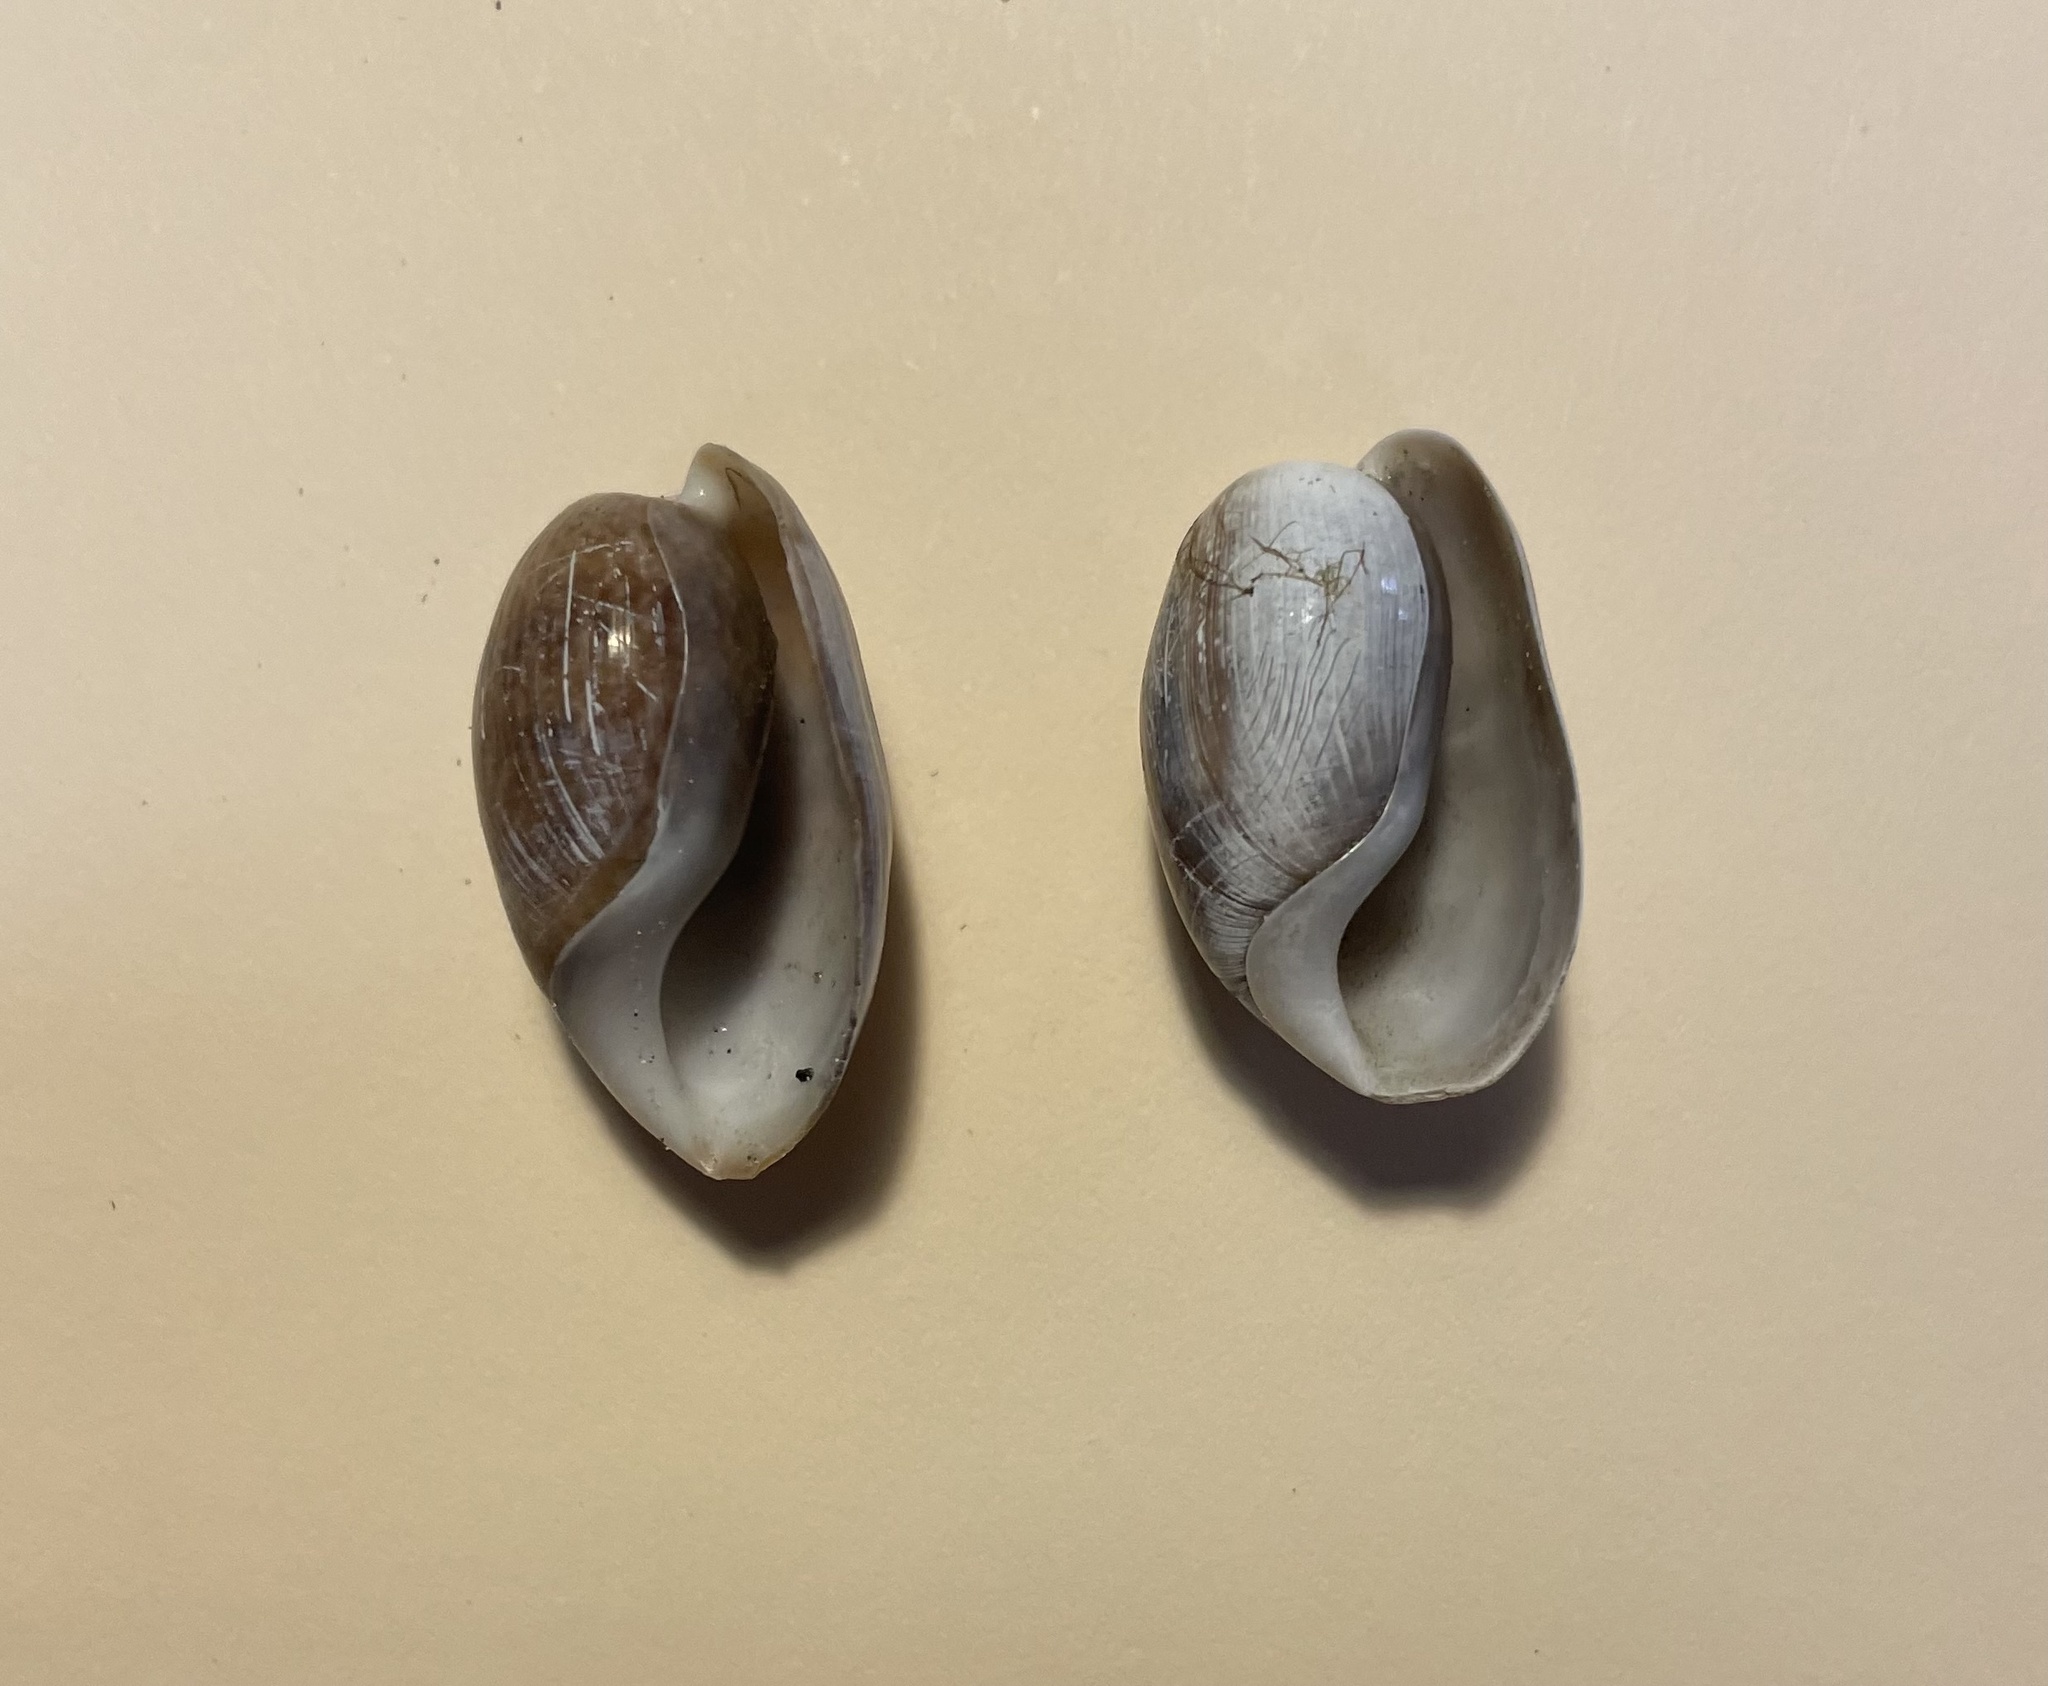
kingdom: Animalia
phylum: Mollusca
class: Gastropoda
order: Cephalaspidea
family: Bullidae
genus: Bulla
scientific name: Bulla occidentalis
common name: Common west-indian bubble
